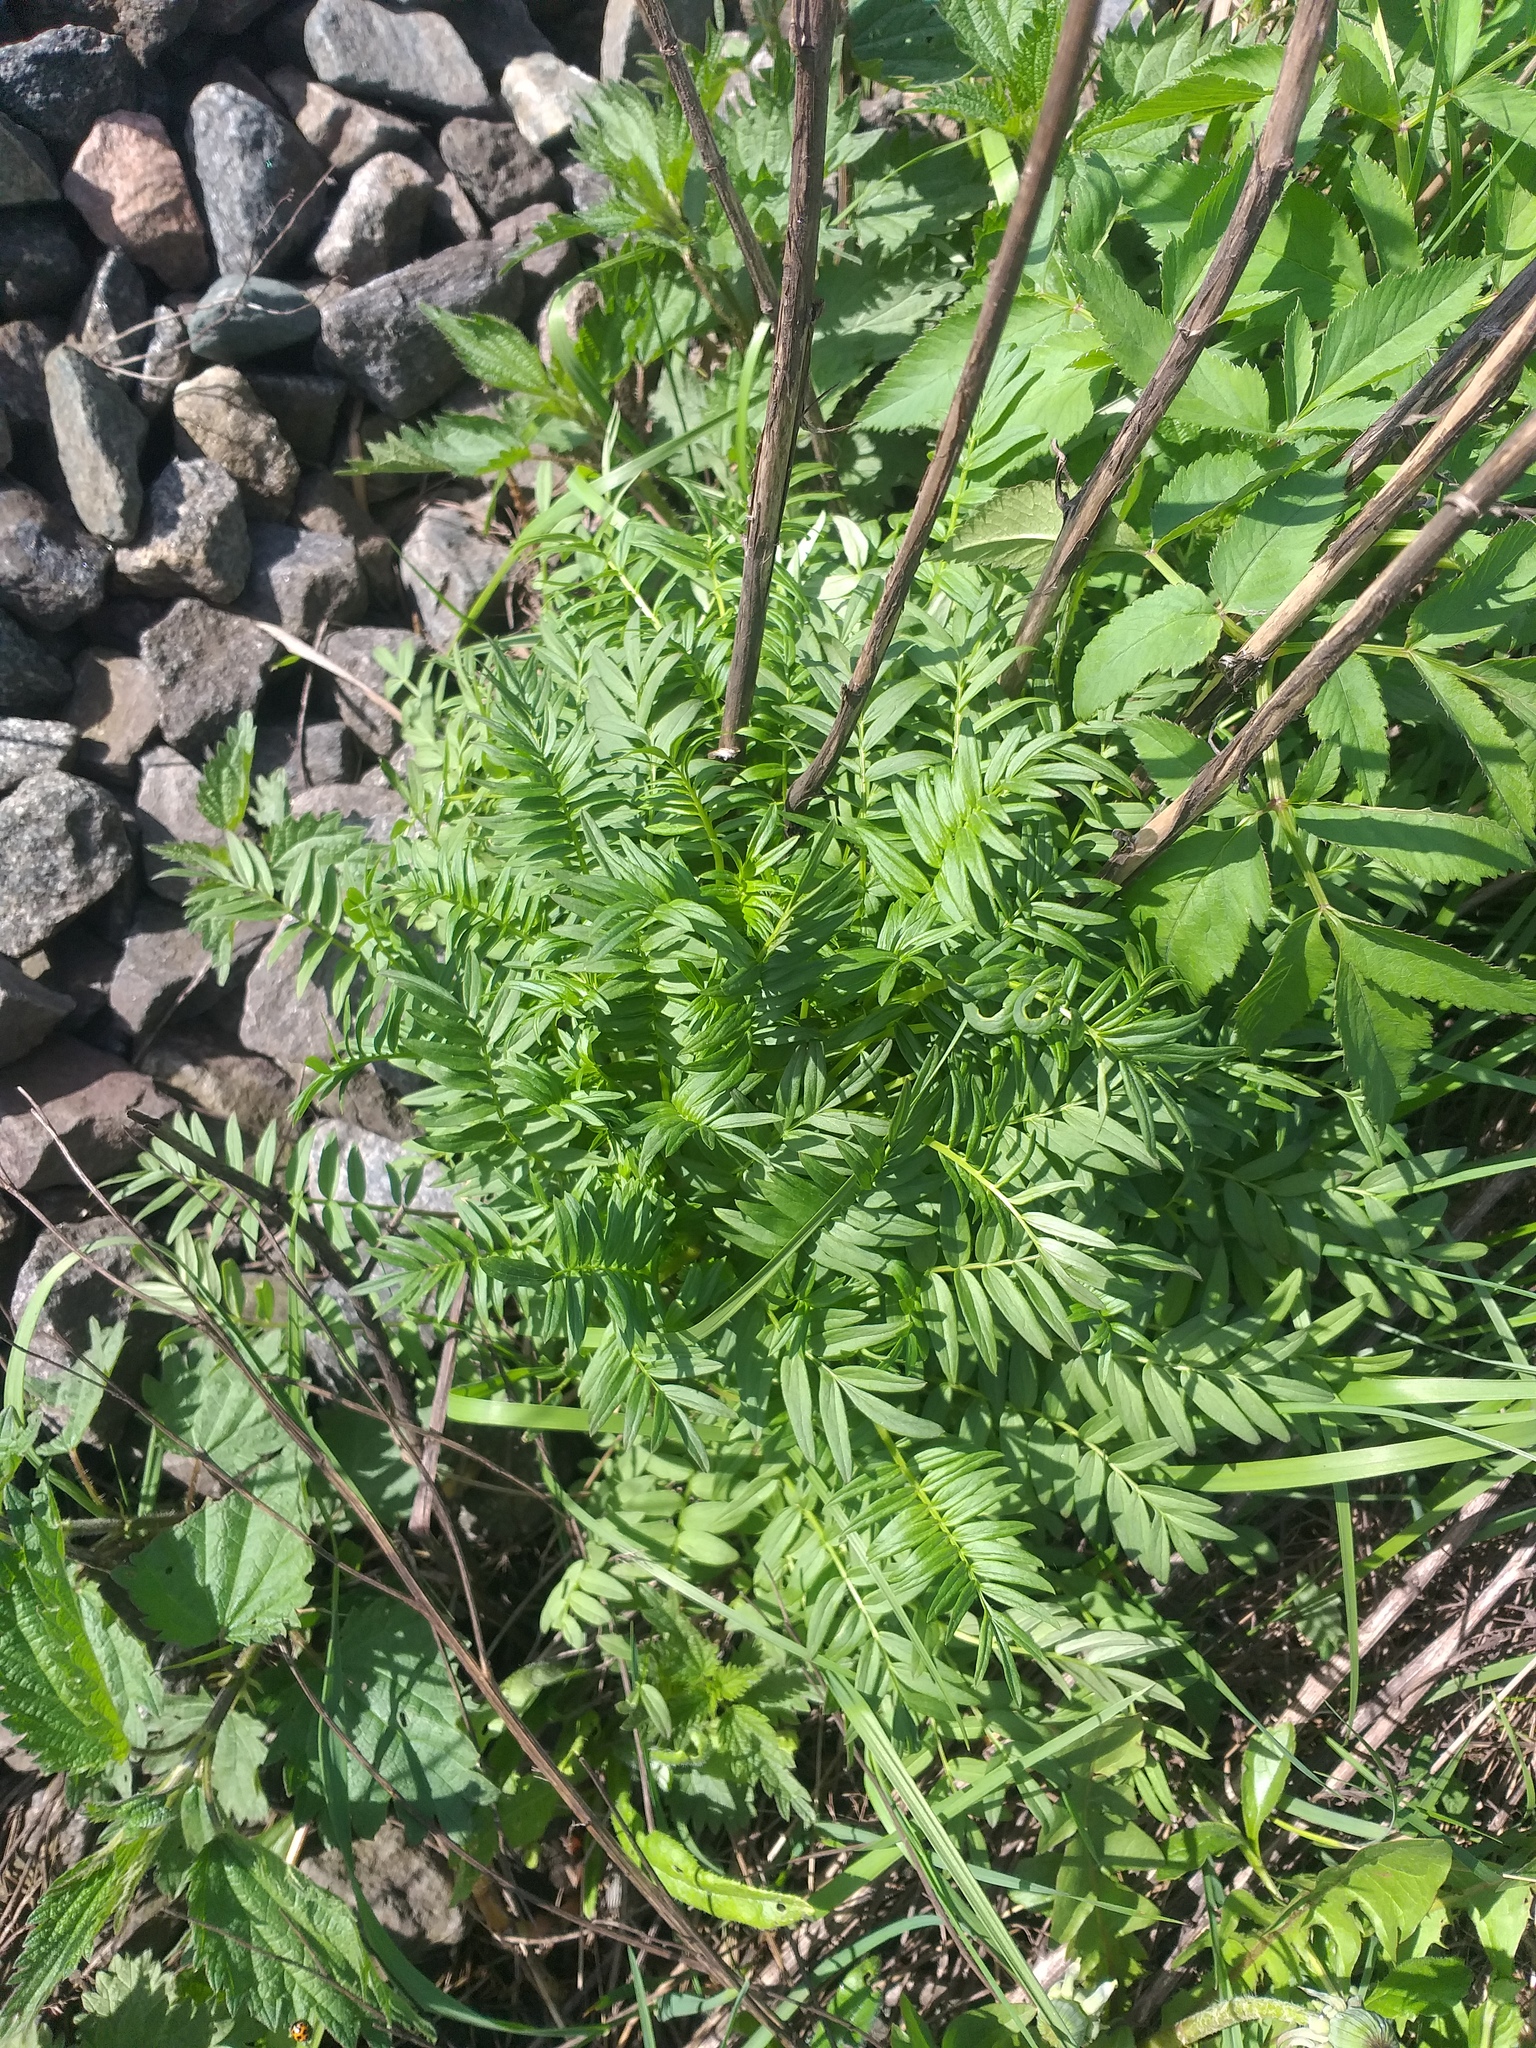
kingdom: Plantae
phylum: Tracheophyta
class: Magnoliopsida
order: Ericales
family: Polemoniaceae
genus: Polemonium
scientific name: Polemonium caeruleum
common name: Jacob's-ladder
